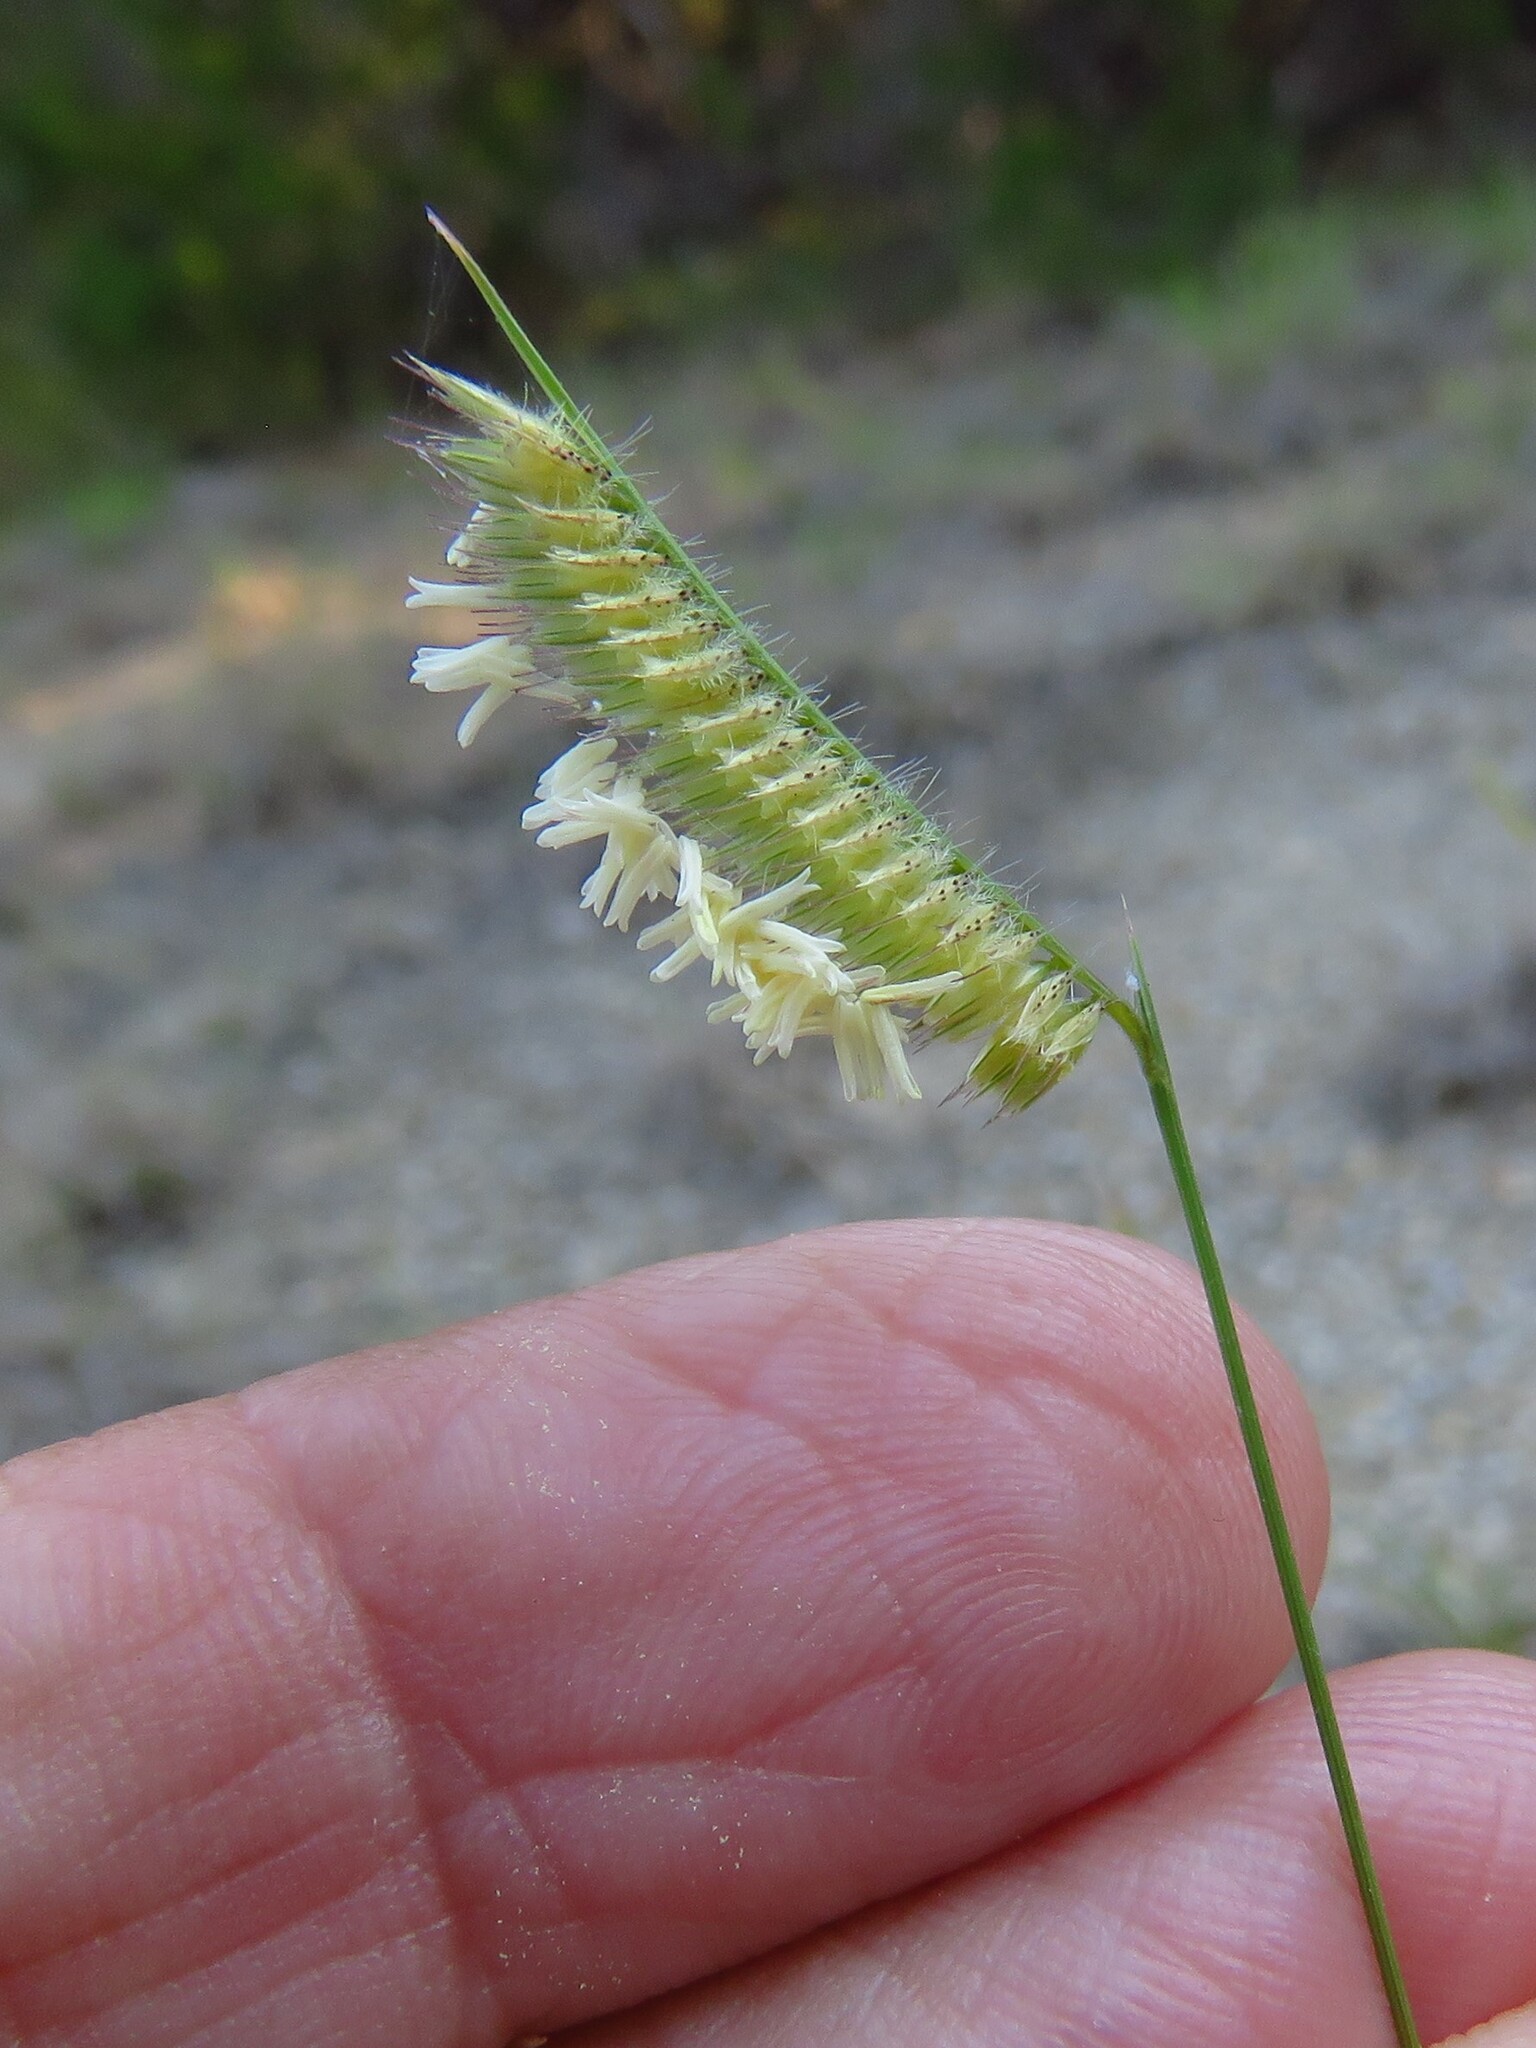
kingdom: Plantae
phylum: Tracheophyta
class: Liliopsida
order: Poales
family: Poaceae
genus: Bouteloua
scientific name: Bouteloua hirsuta
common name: Hairy grama
